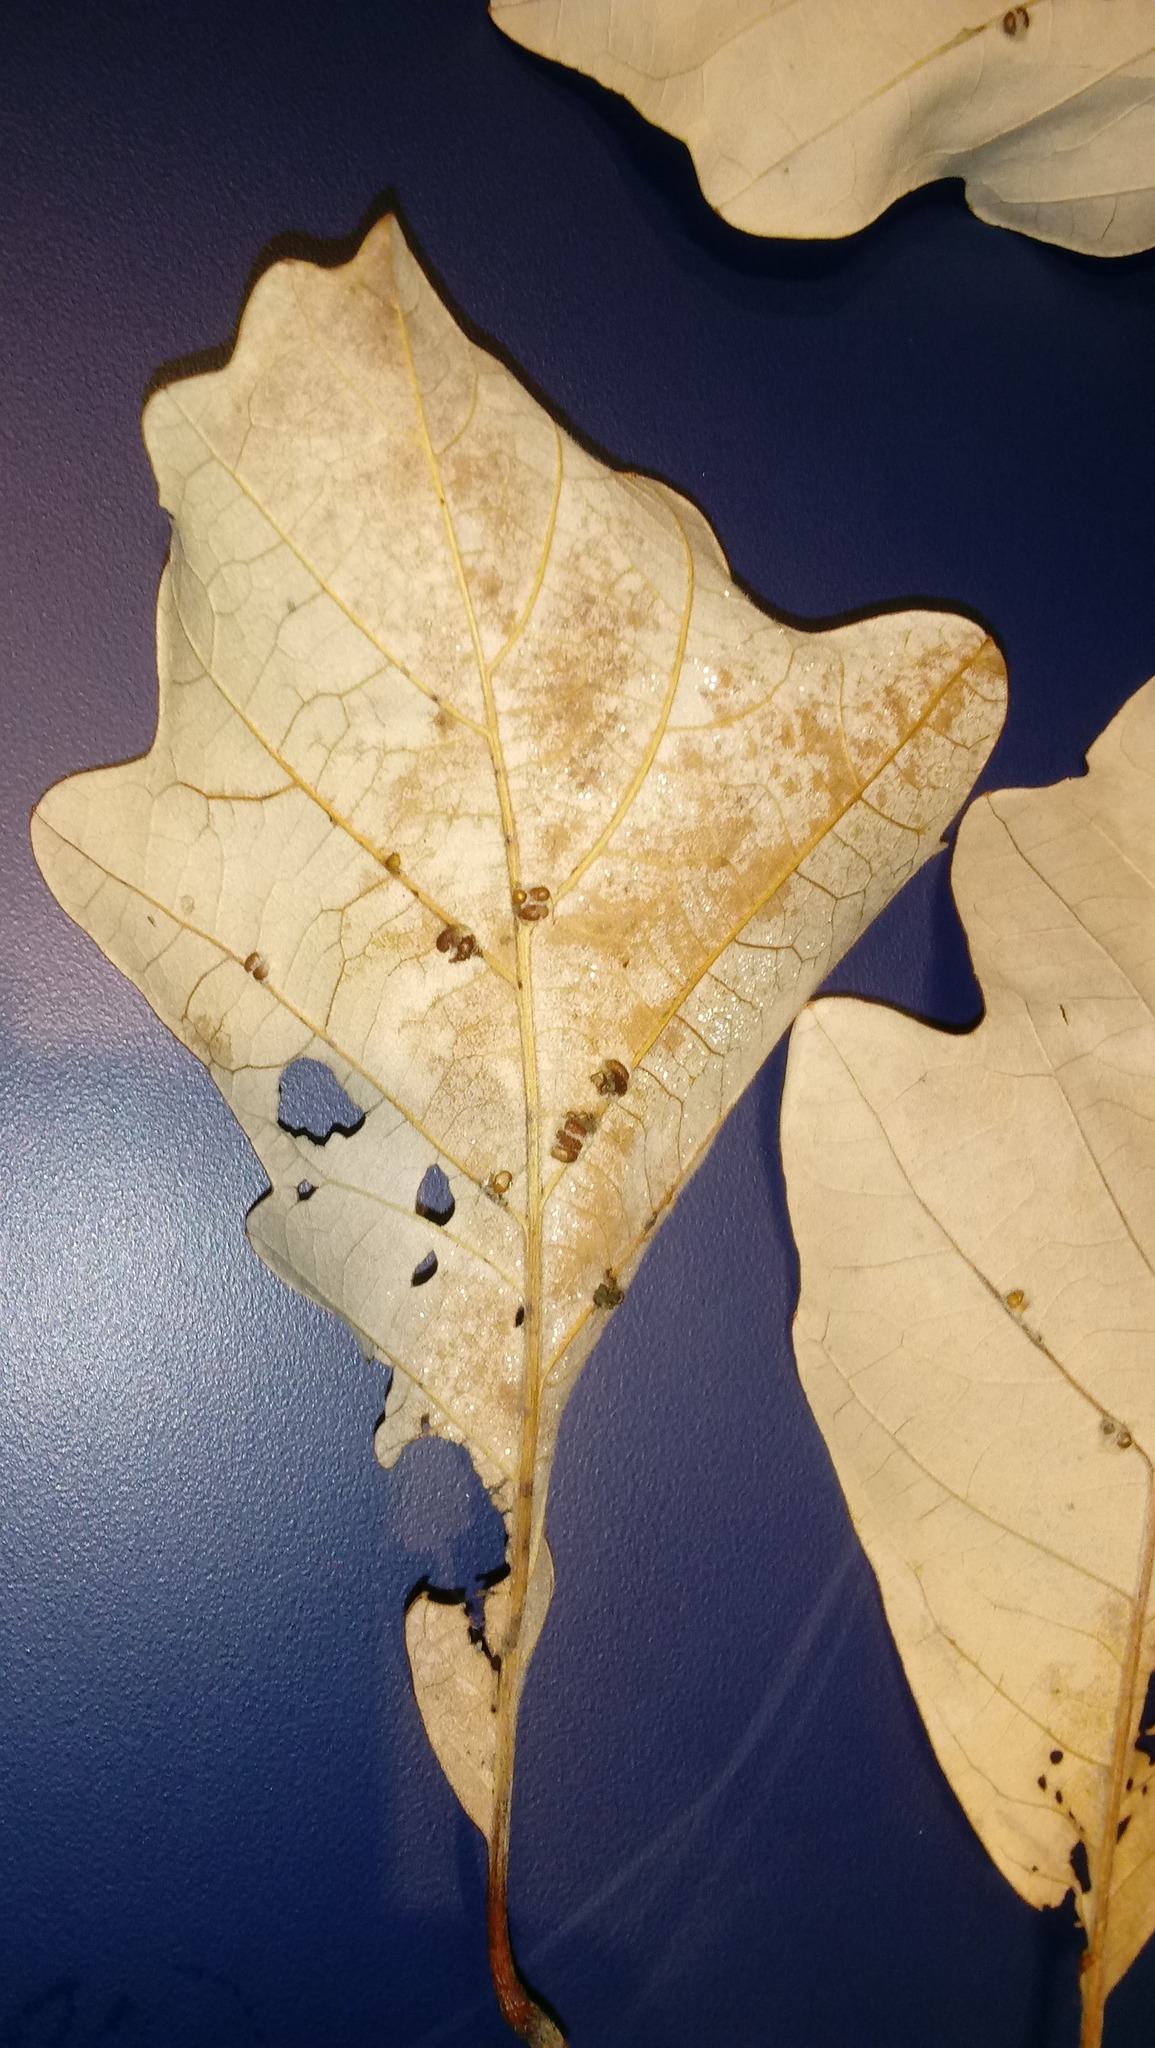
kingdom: Animalia
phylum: Arthropoda
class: Insecta
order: Hymenoptera
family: Cynipidae
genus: Andricus
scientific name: Andricus Druon ignotum
